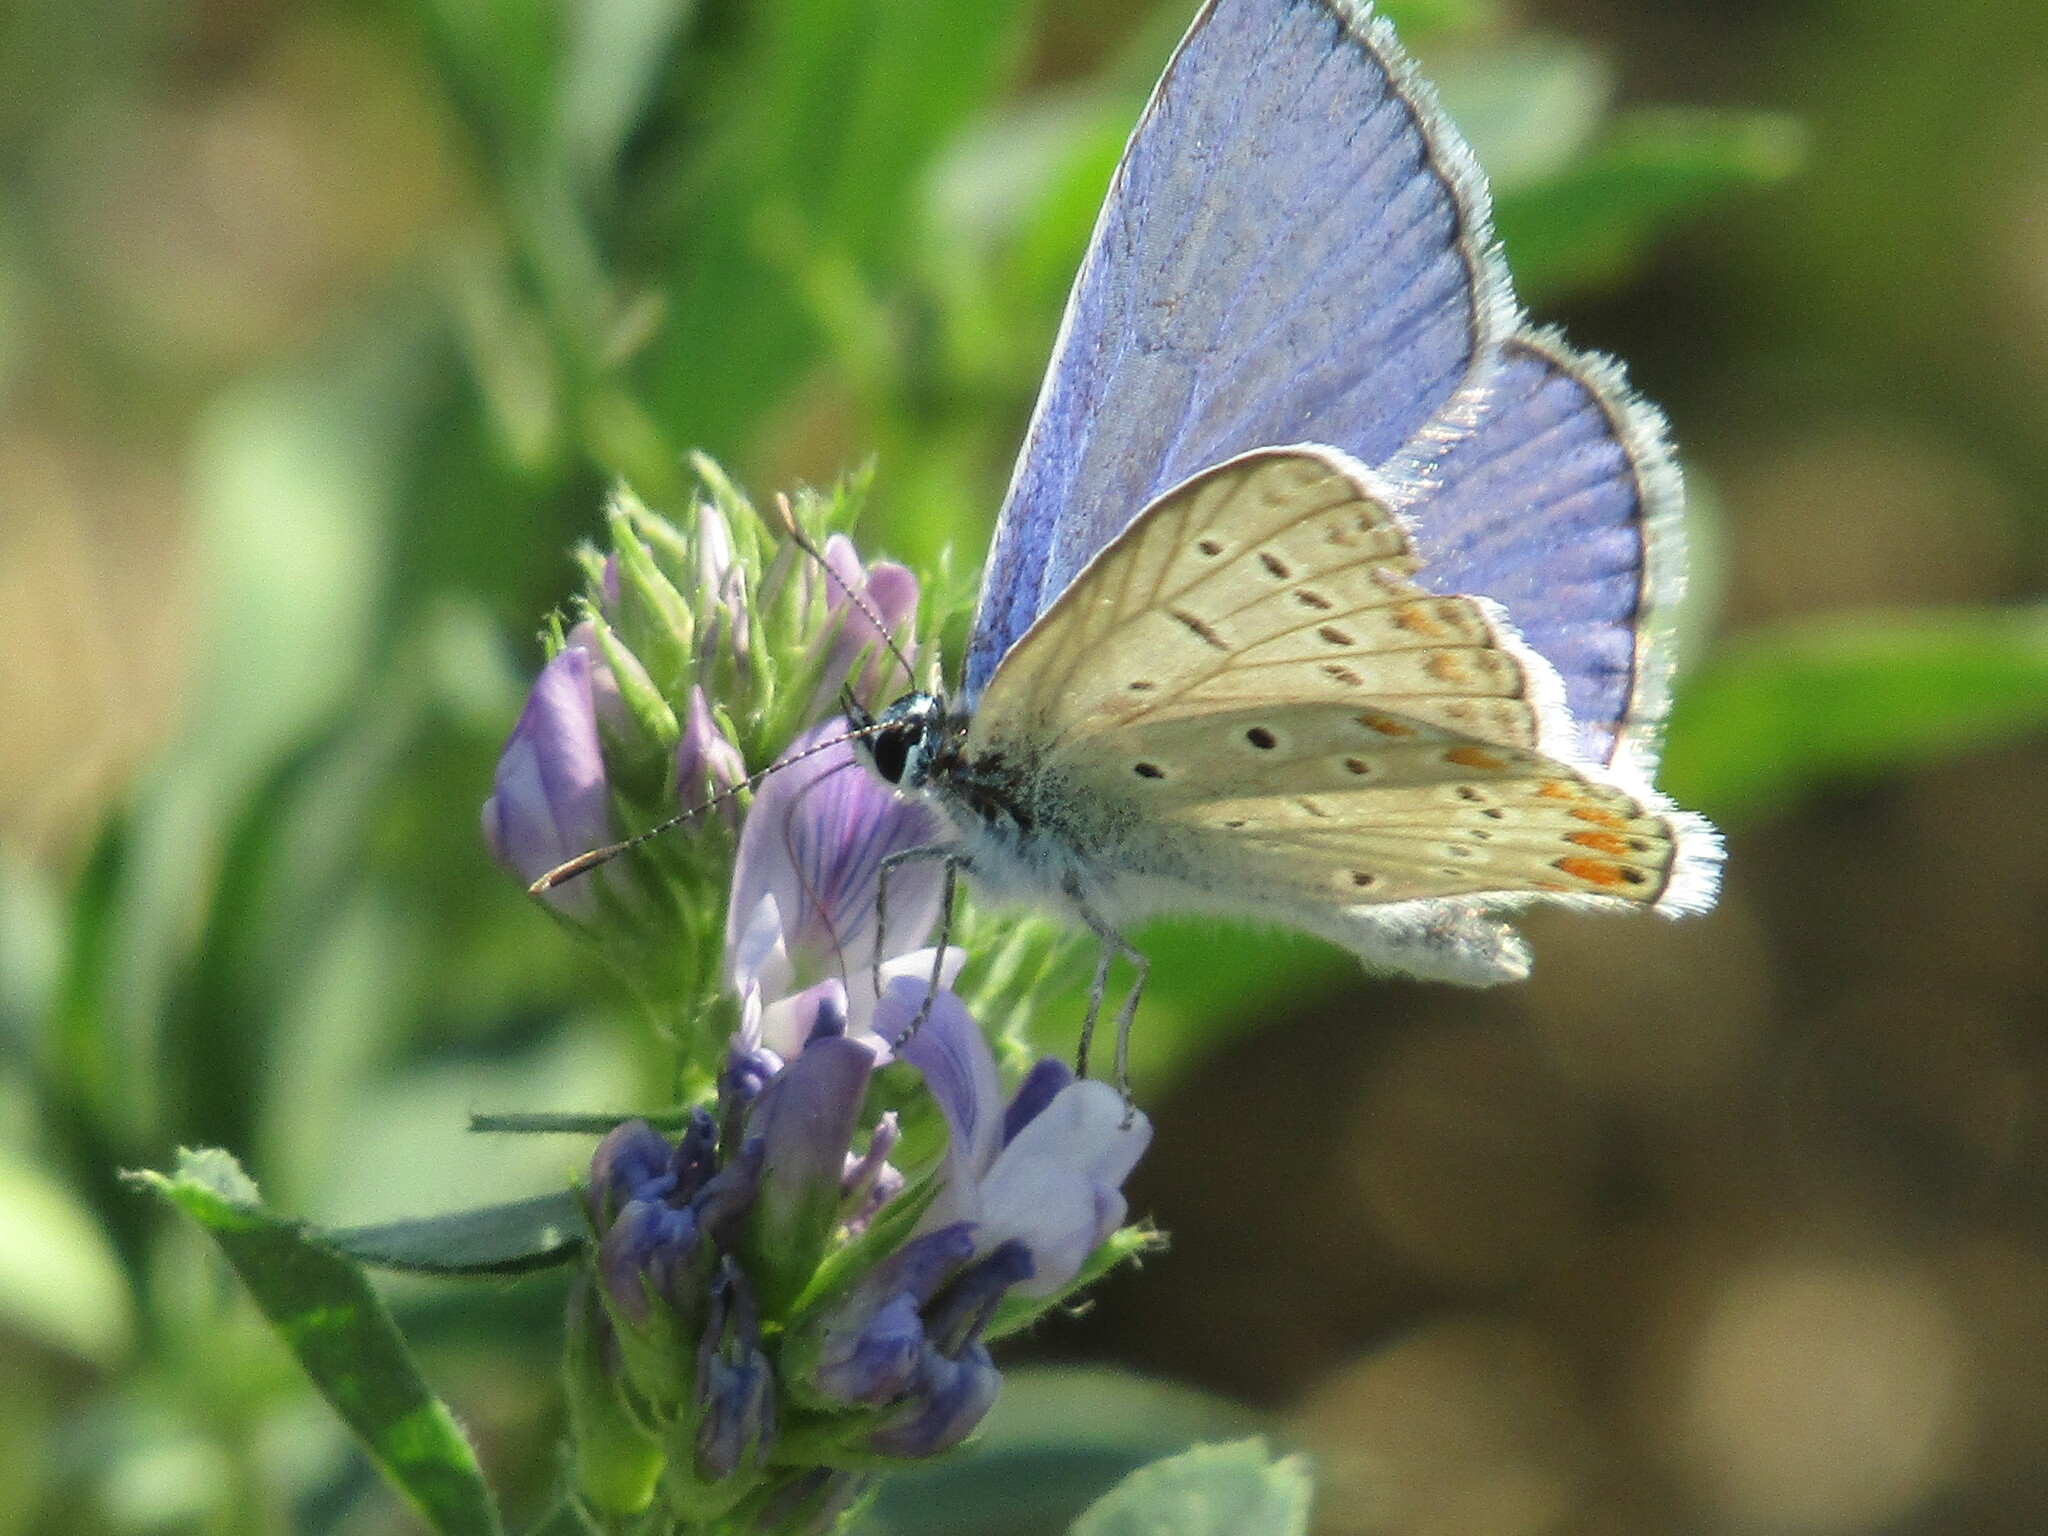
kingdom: Animalia
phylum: Arthropoda
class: Insecta
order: Lepidoptera
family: Lycaenidae
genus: Polyommatus
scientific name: Polyommatus icarus
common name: Common blue
